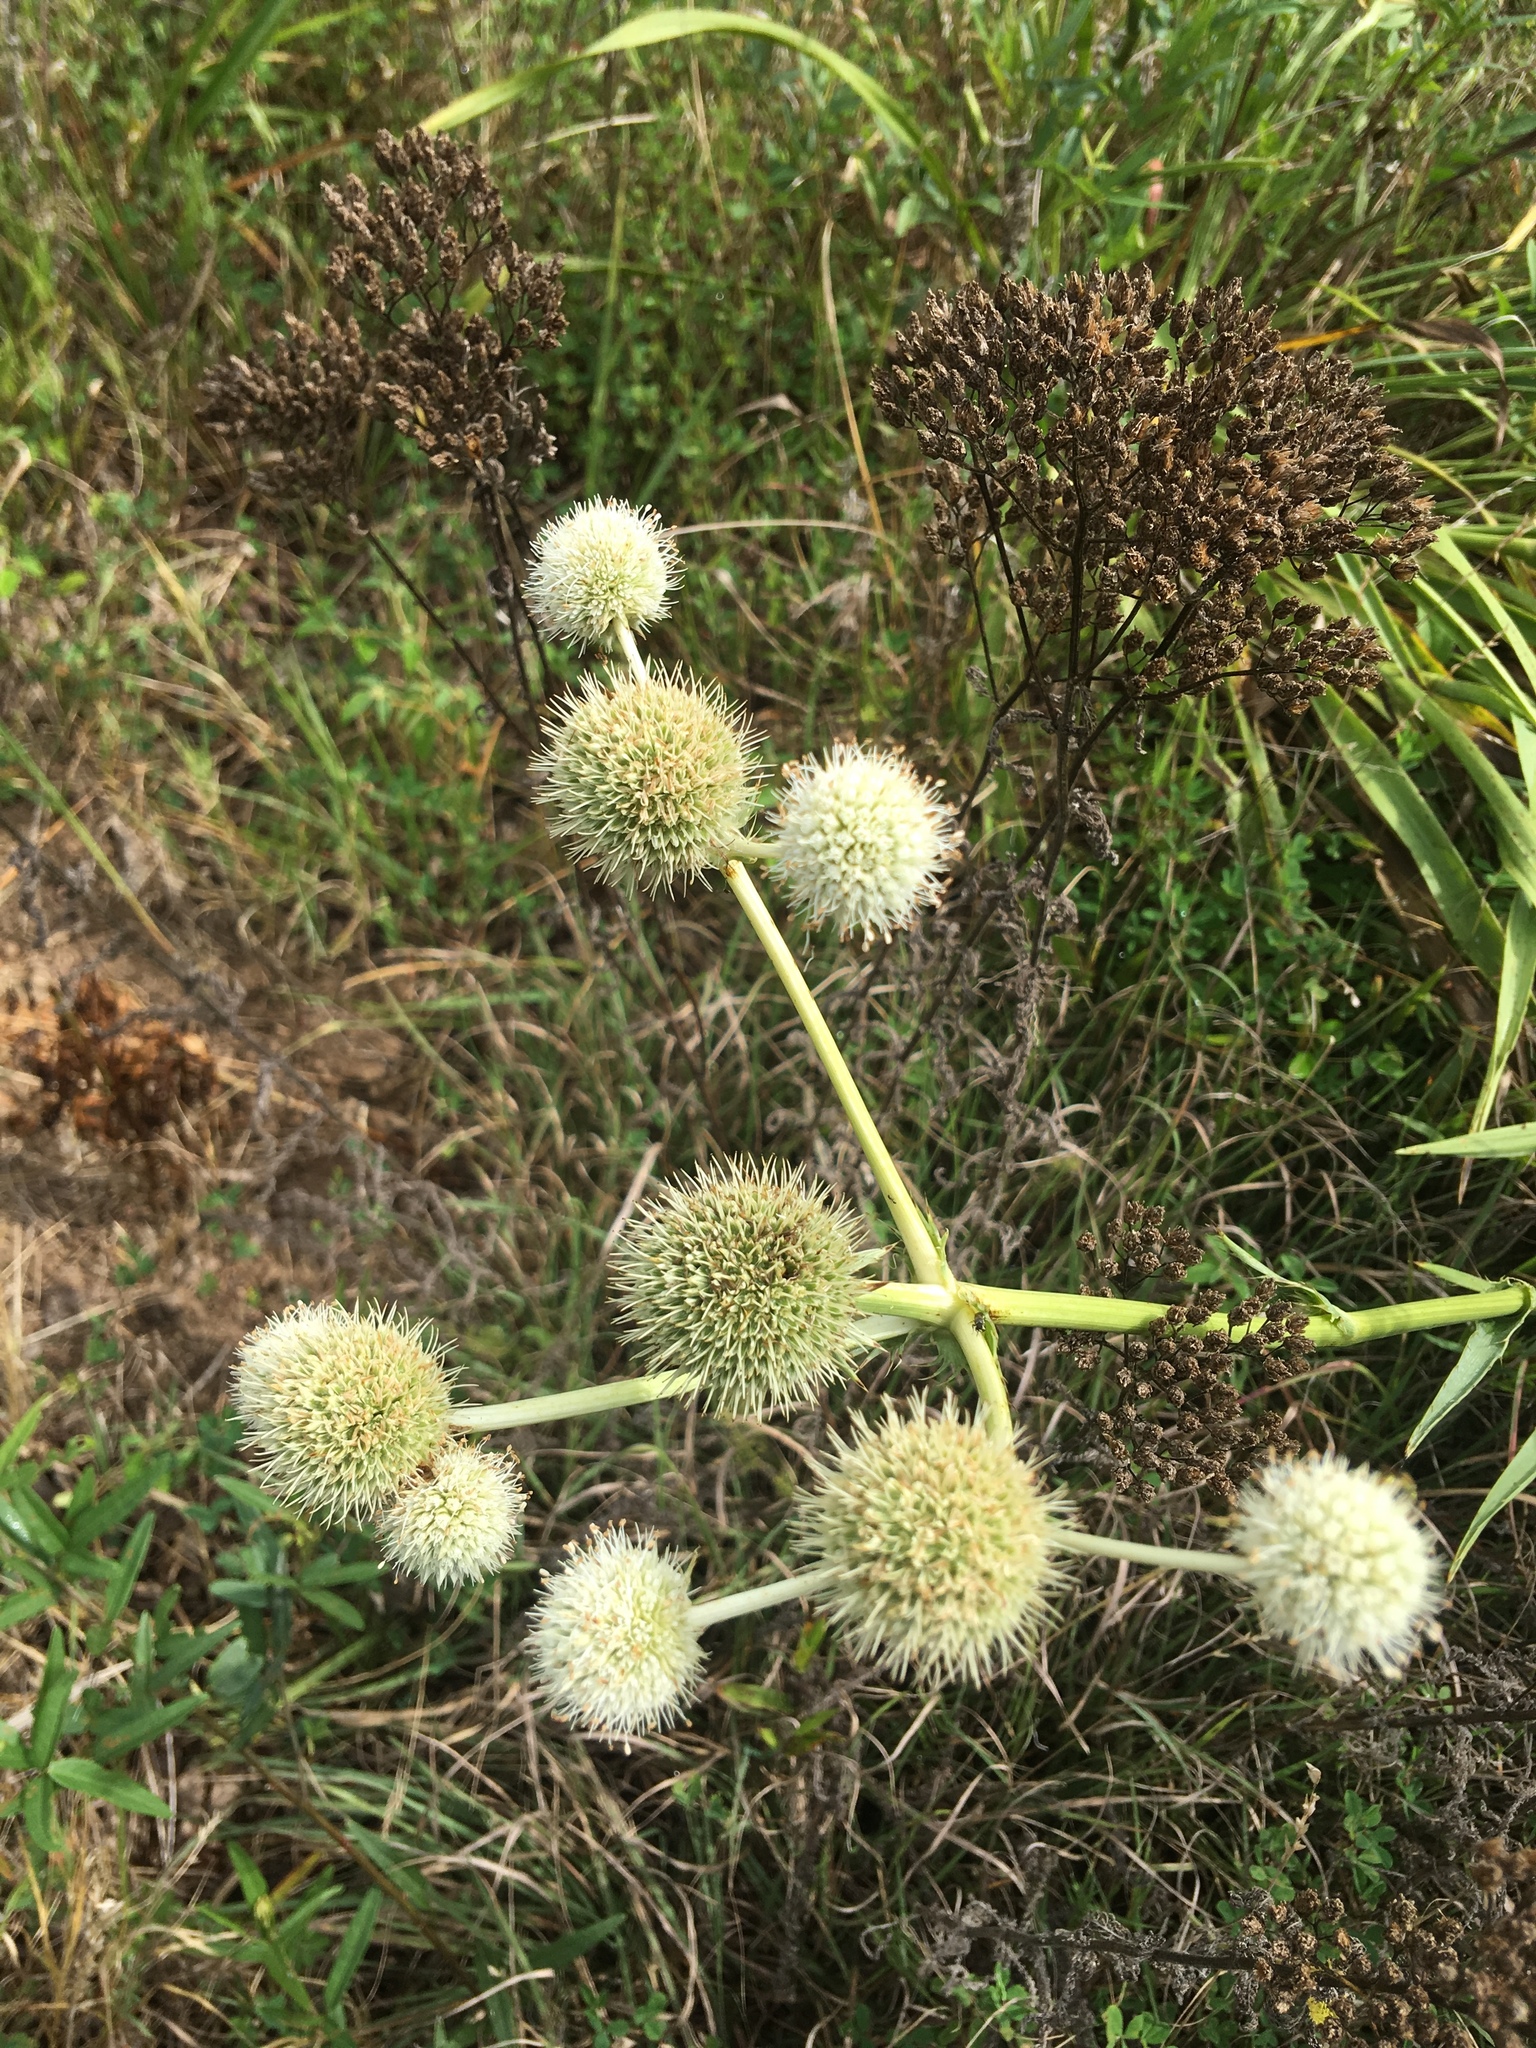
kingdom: Plantae
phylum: Tracheophyta
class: Magnoliopsida
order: Apiales
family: Apiaceae
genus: Eryngium
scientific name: Eryngium yuccifolium
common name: Button eryngo
